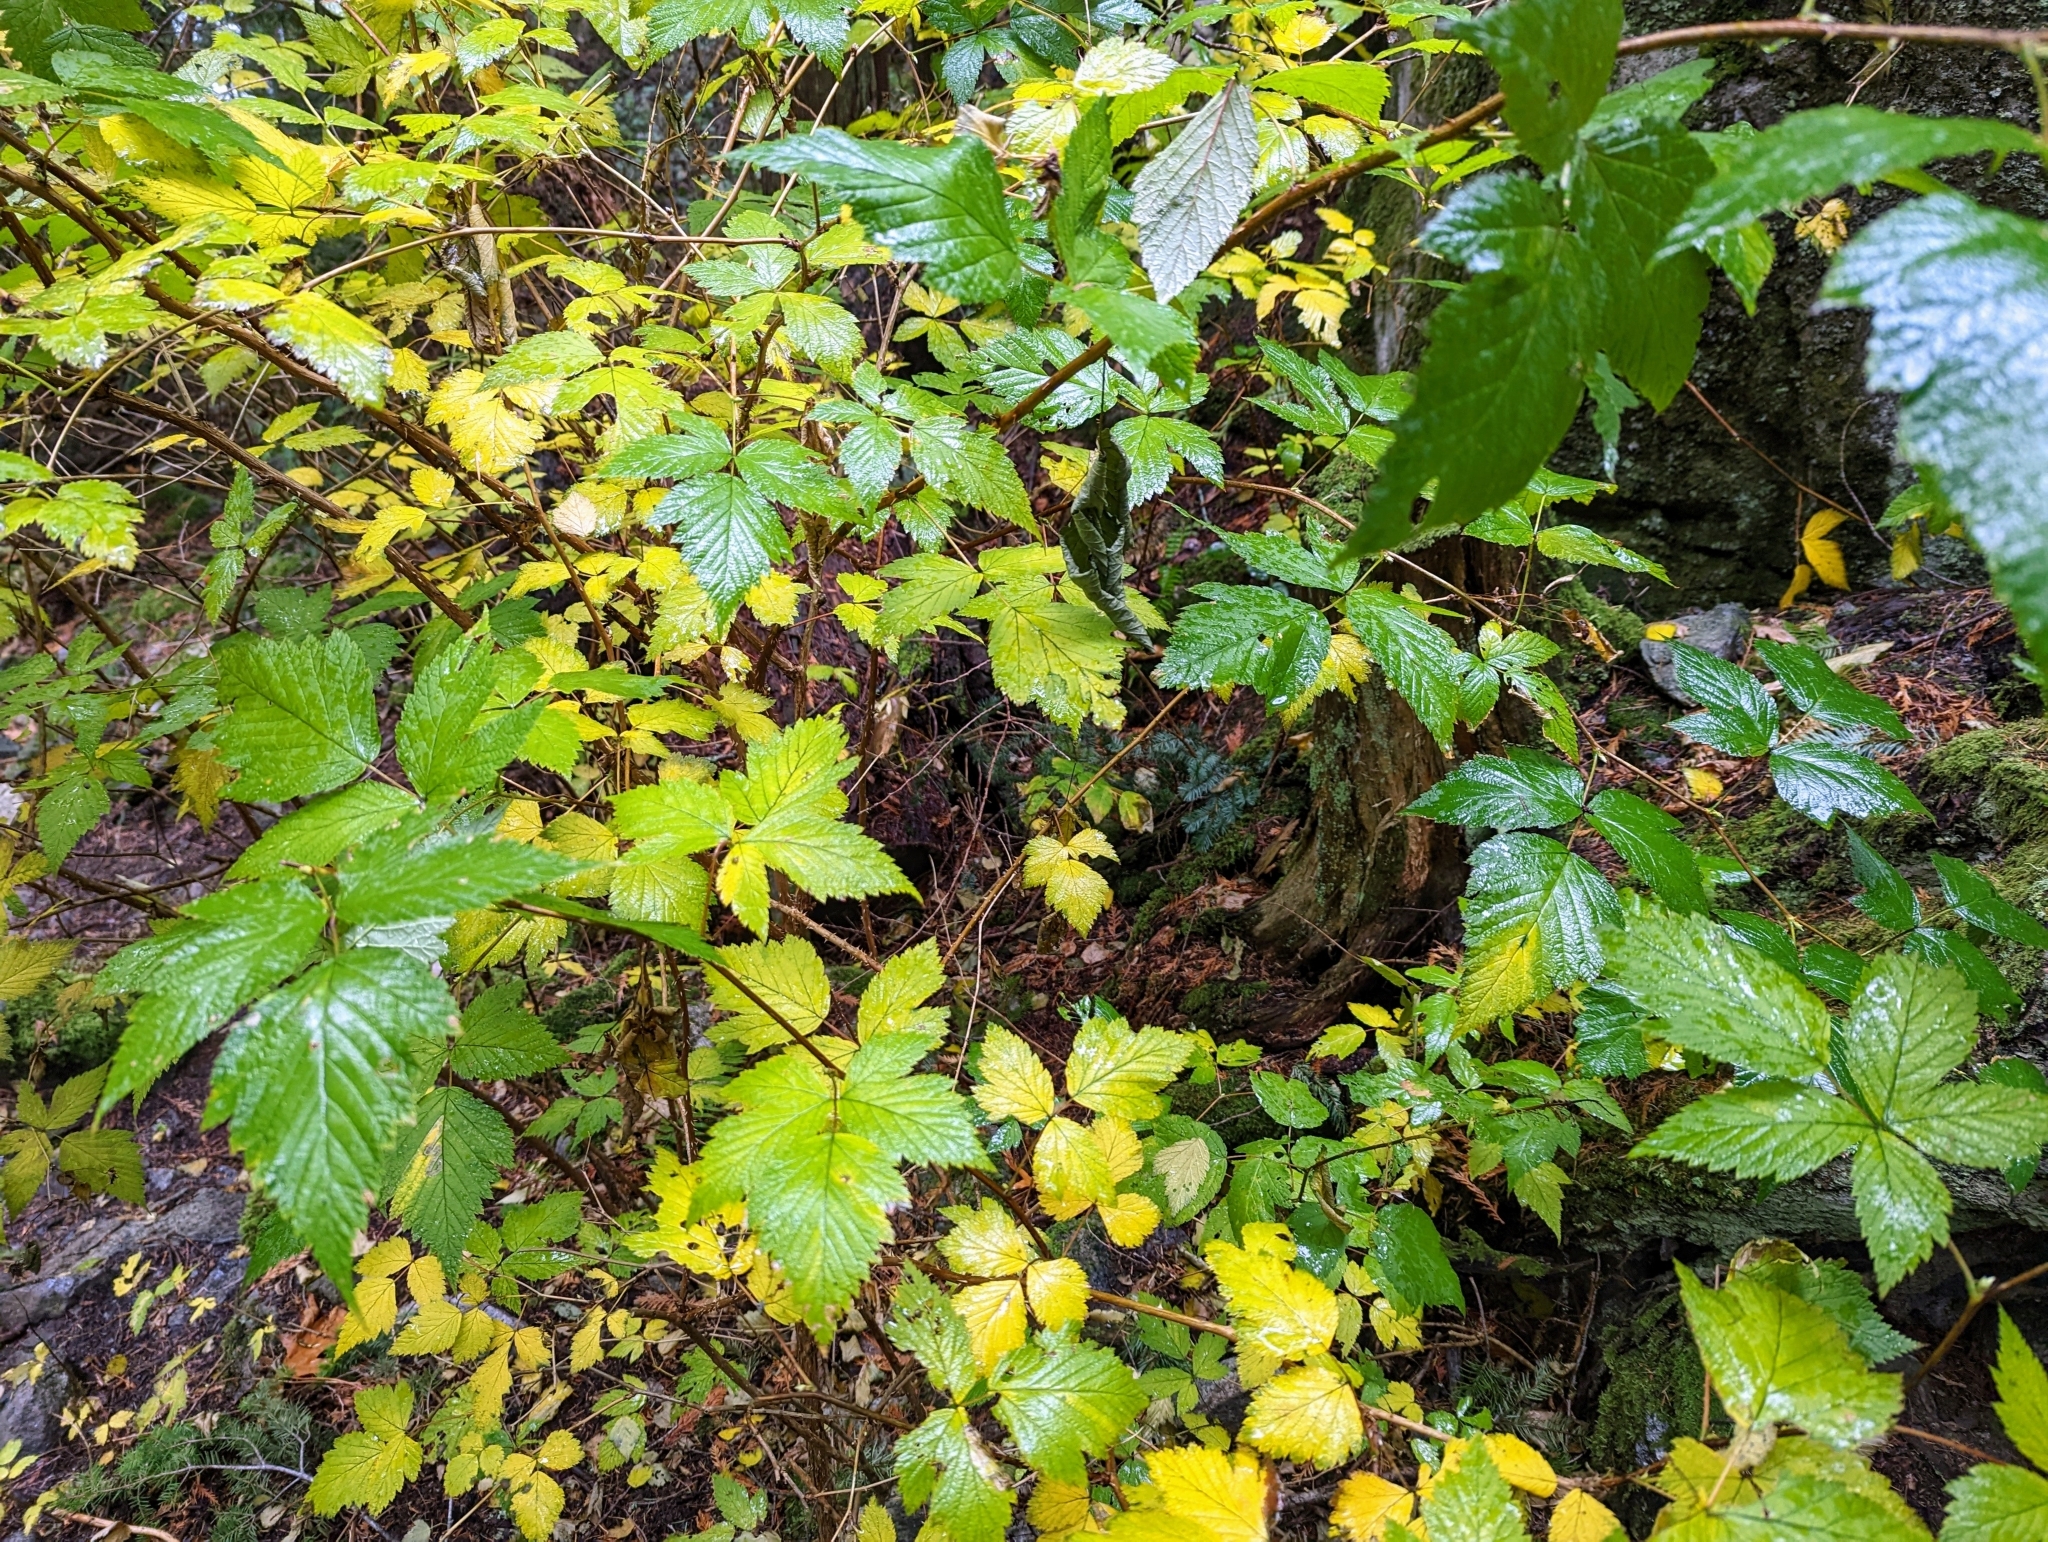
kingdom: Plantae
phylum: Tracheophyta
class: Magnoliopsida
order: Rosales
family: Rosaceae
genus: Rubus
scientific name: Rubus spectabilis
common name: Salmonberry
